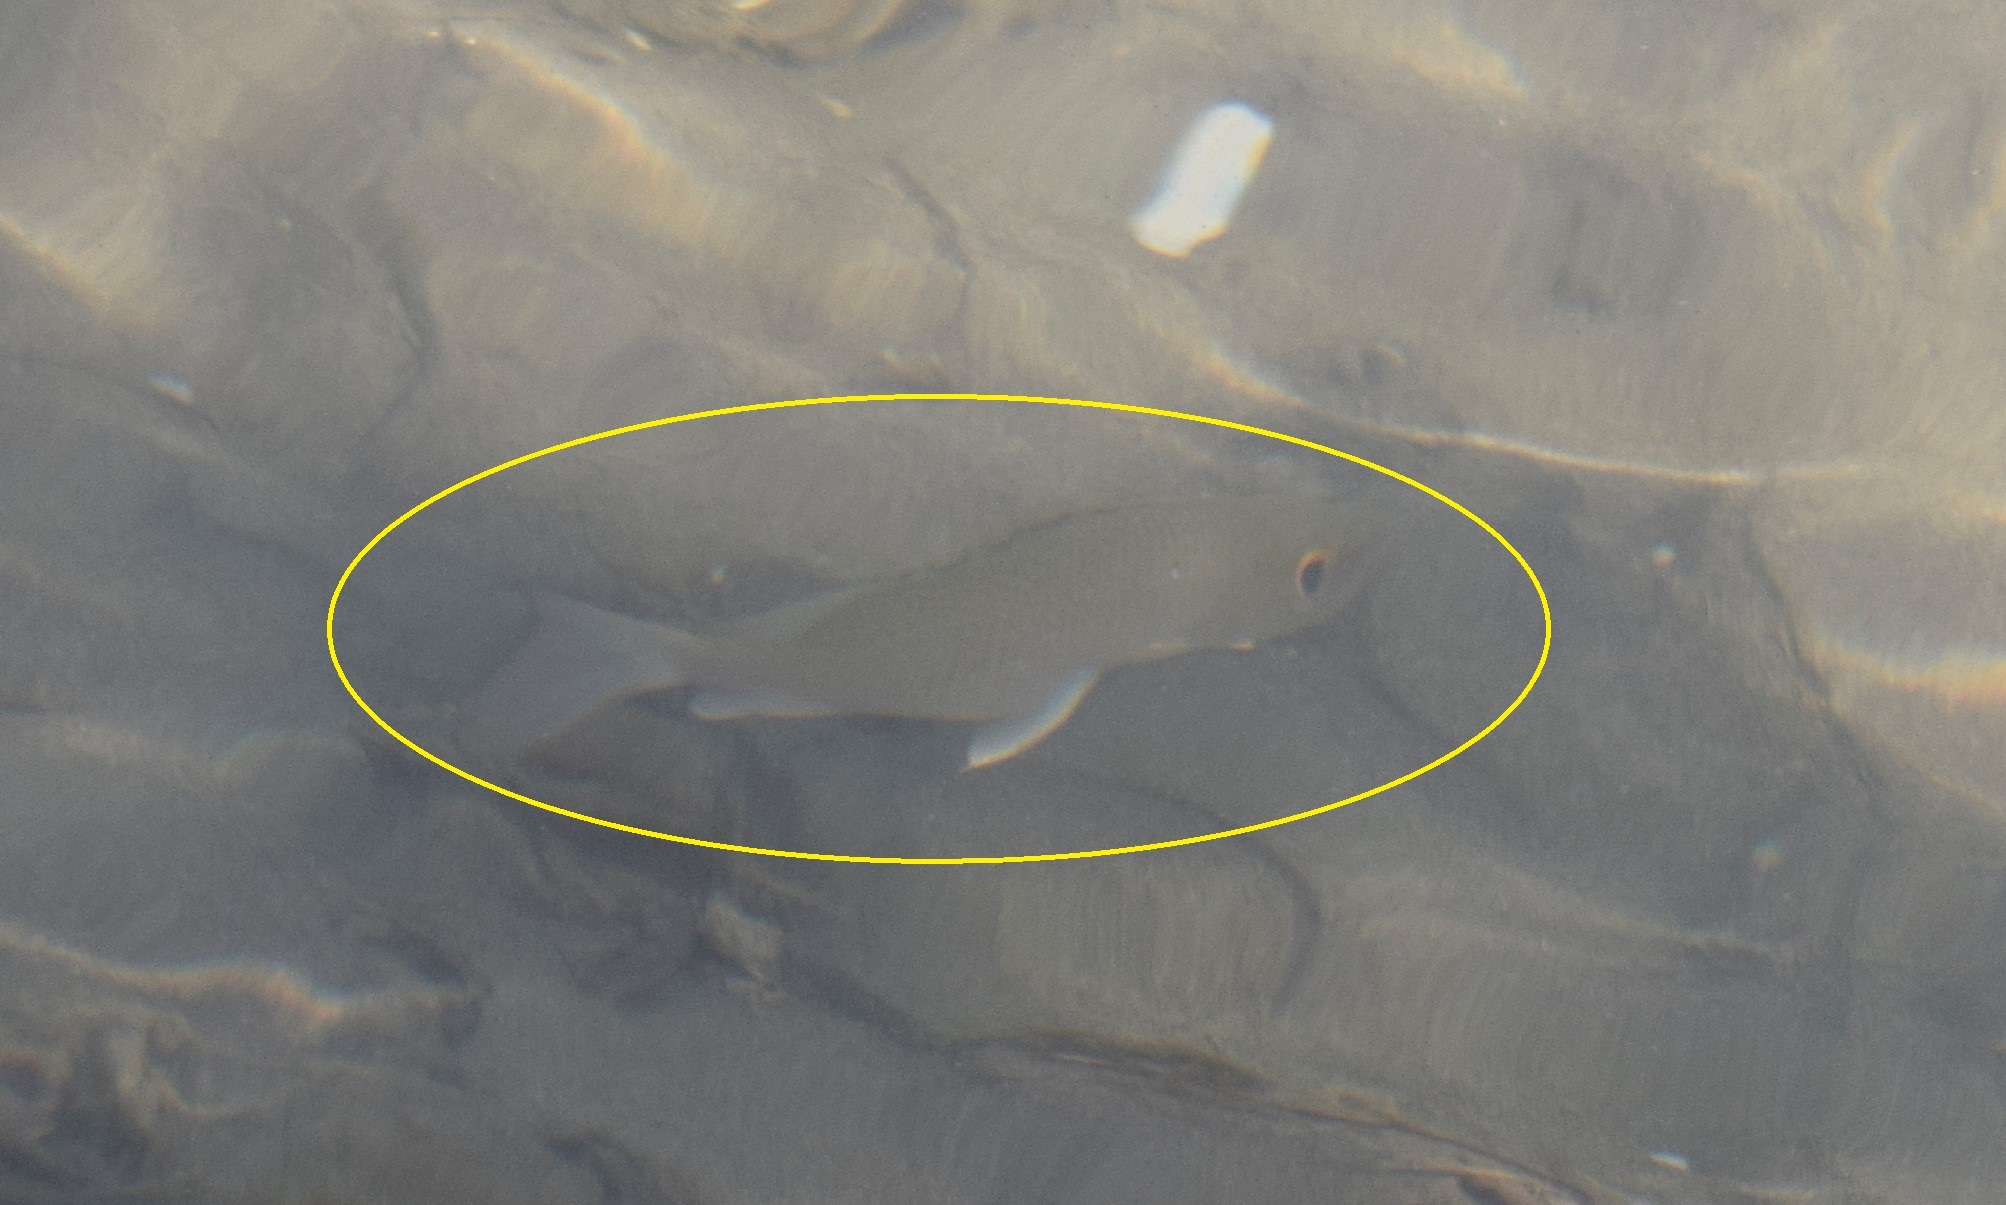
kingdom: Animalia
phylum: Chordata
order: Perciformes
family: Lutjanidae
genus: Lutjanus
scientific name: Lutjanus griseus
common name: Gray snapper
